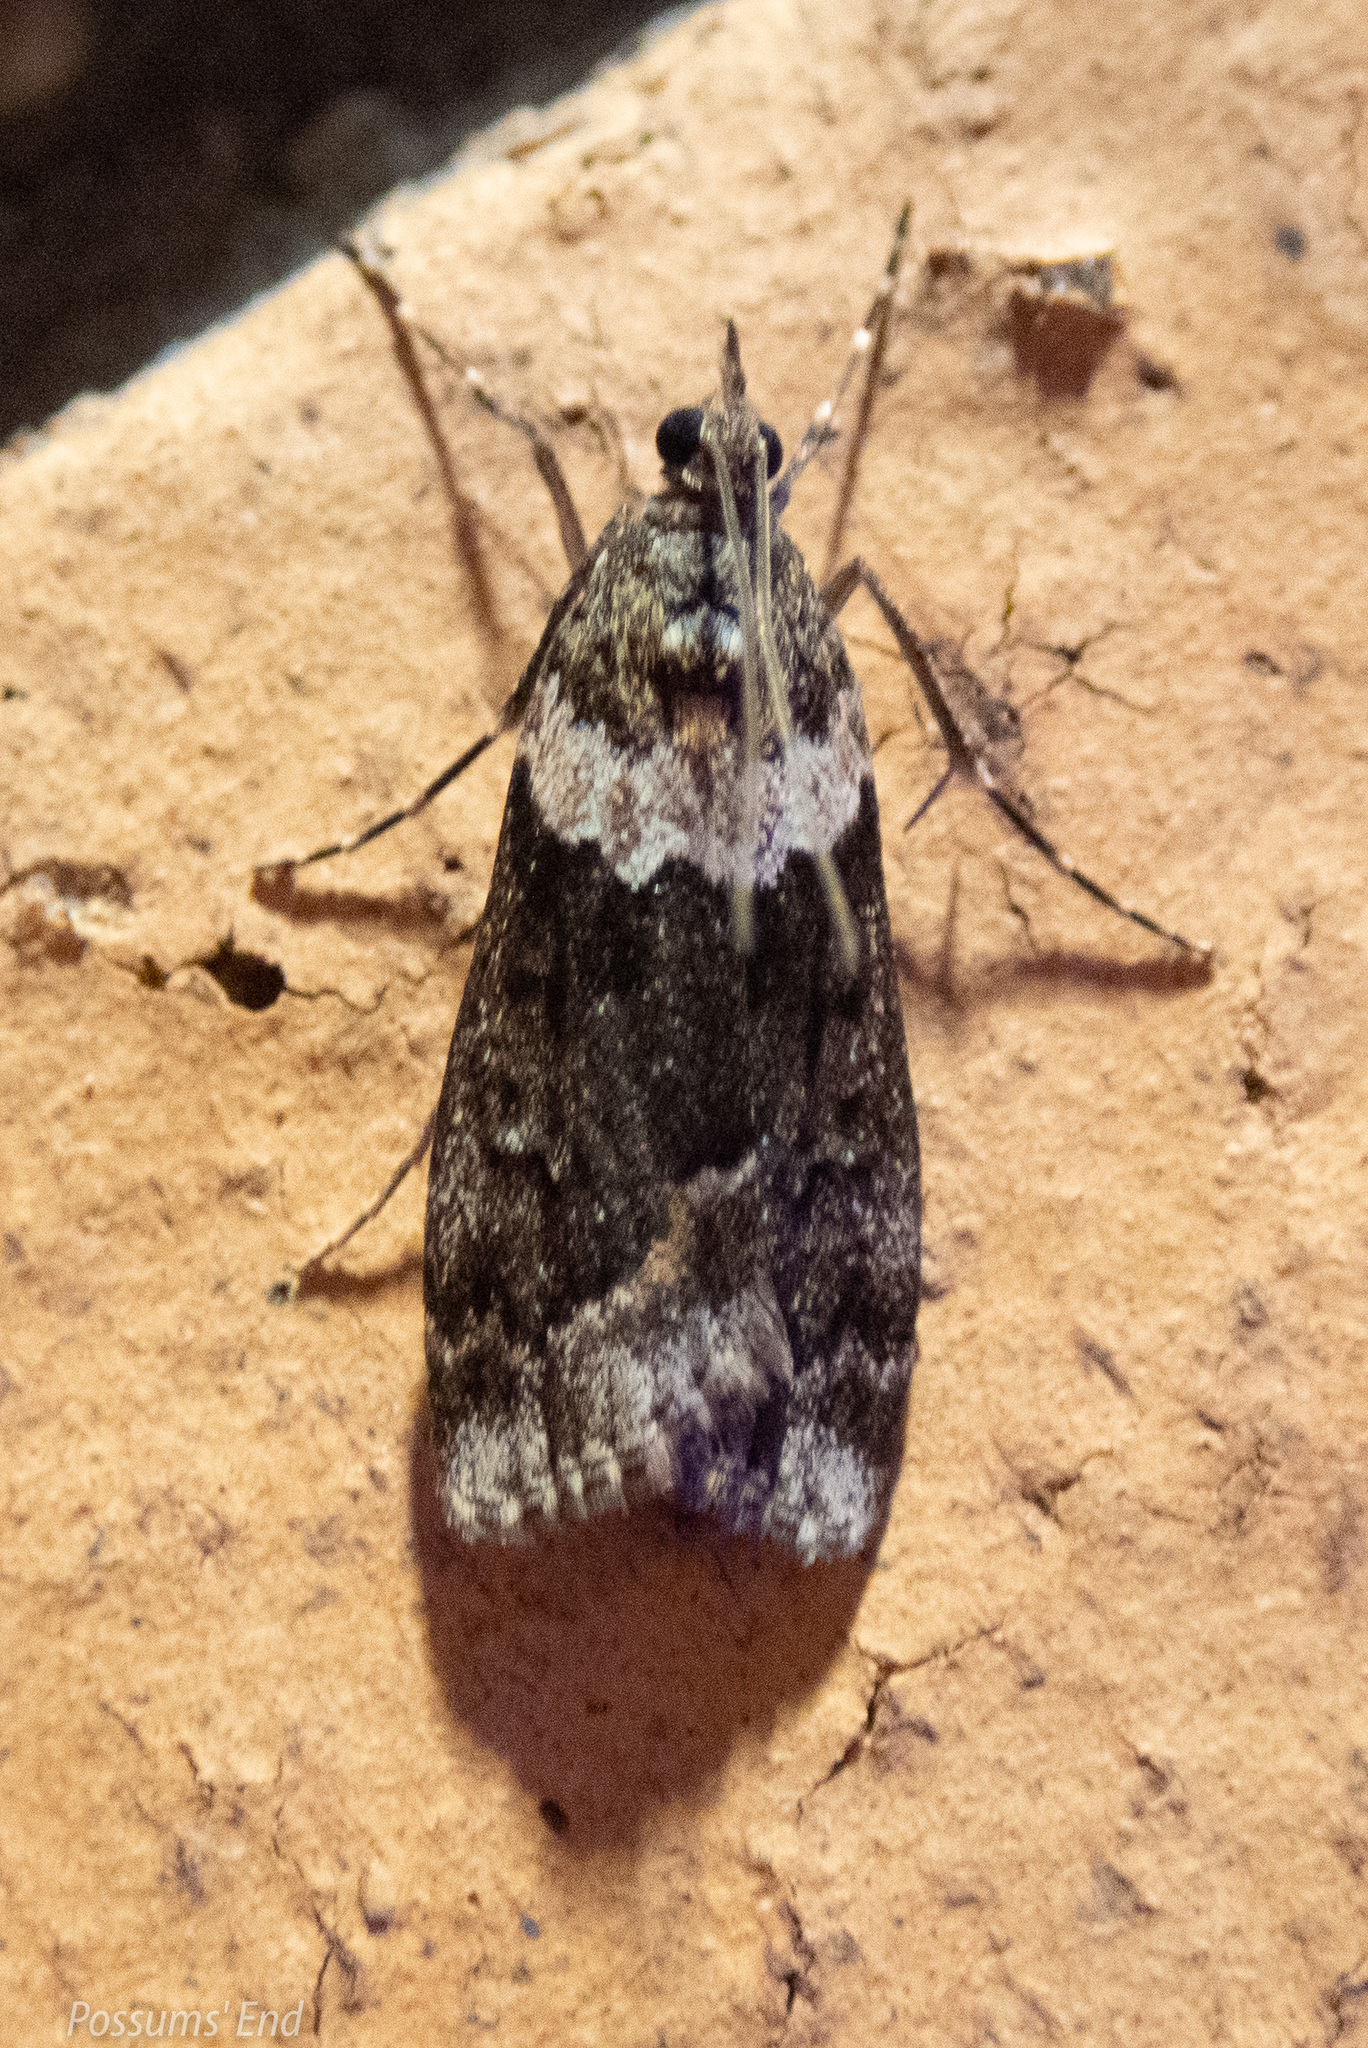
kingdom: Animalia
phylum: Arthropoda
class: Insecta
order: Lepidoptera
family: Crambidae
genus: Eudonia
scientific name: Eudonia submarginalis
